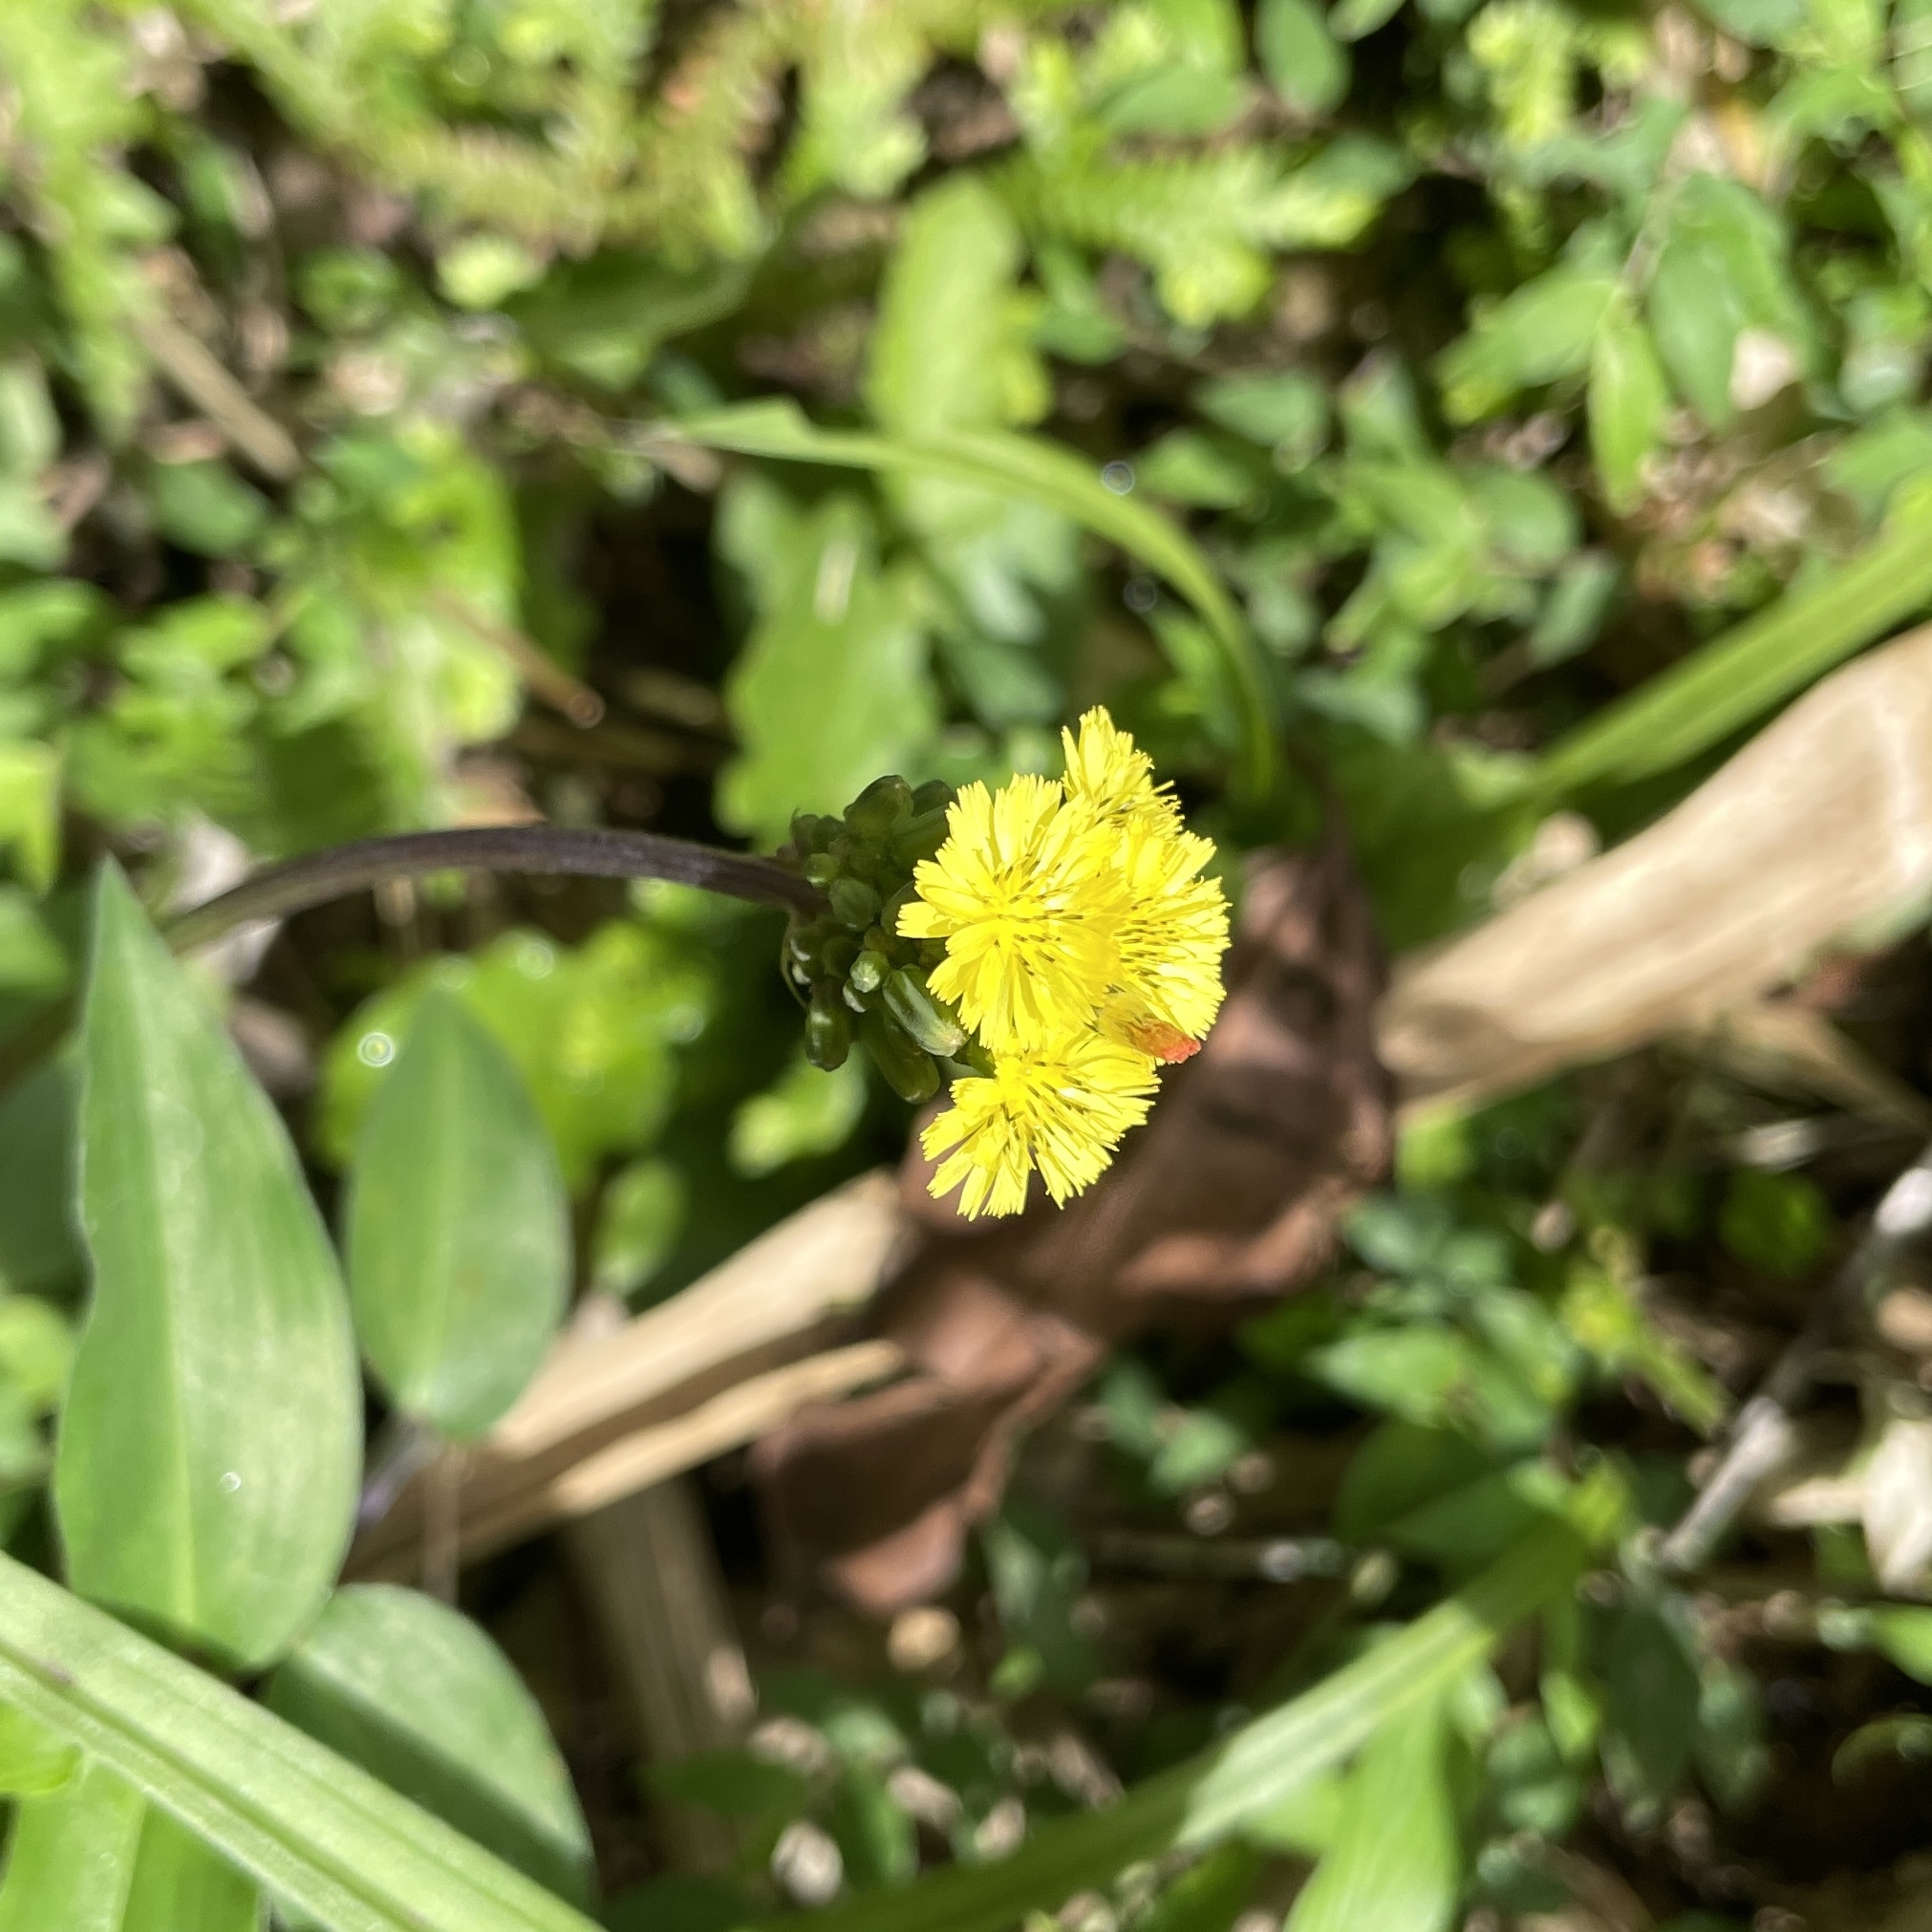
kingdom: Plantae
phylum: Tracheophyta
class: Magnoliopsida
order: Asterales
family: Asteraceae
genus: Youngia
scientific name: Youngia japonica
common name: Oriental false hawksbeard
